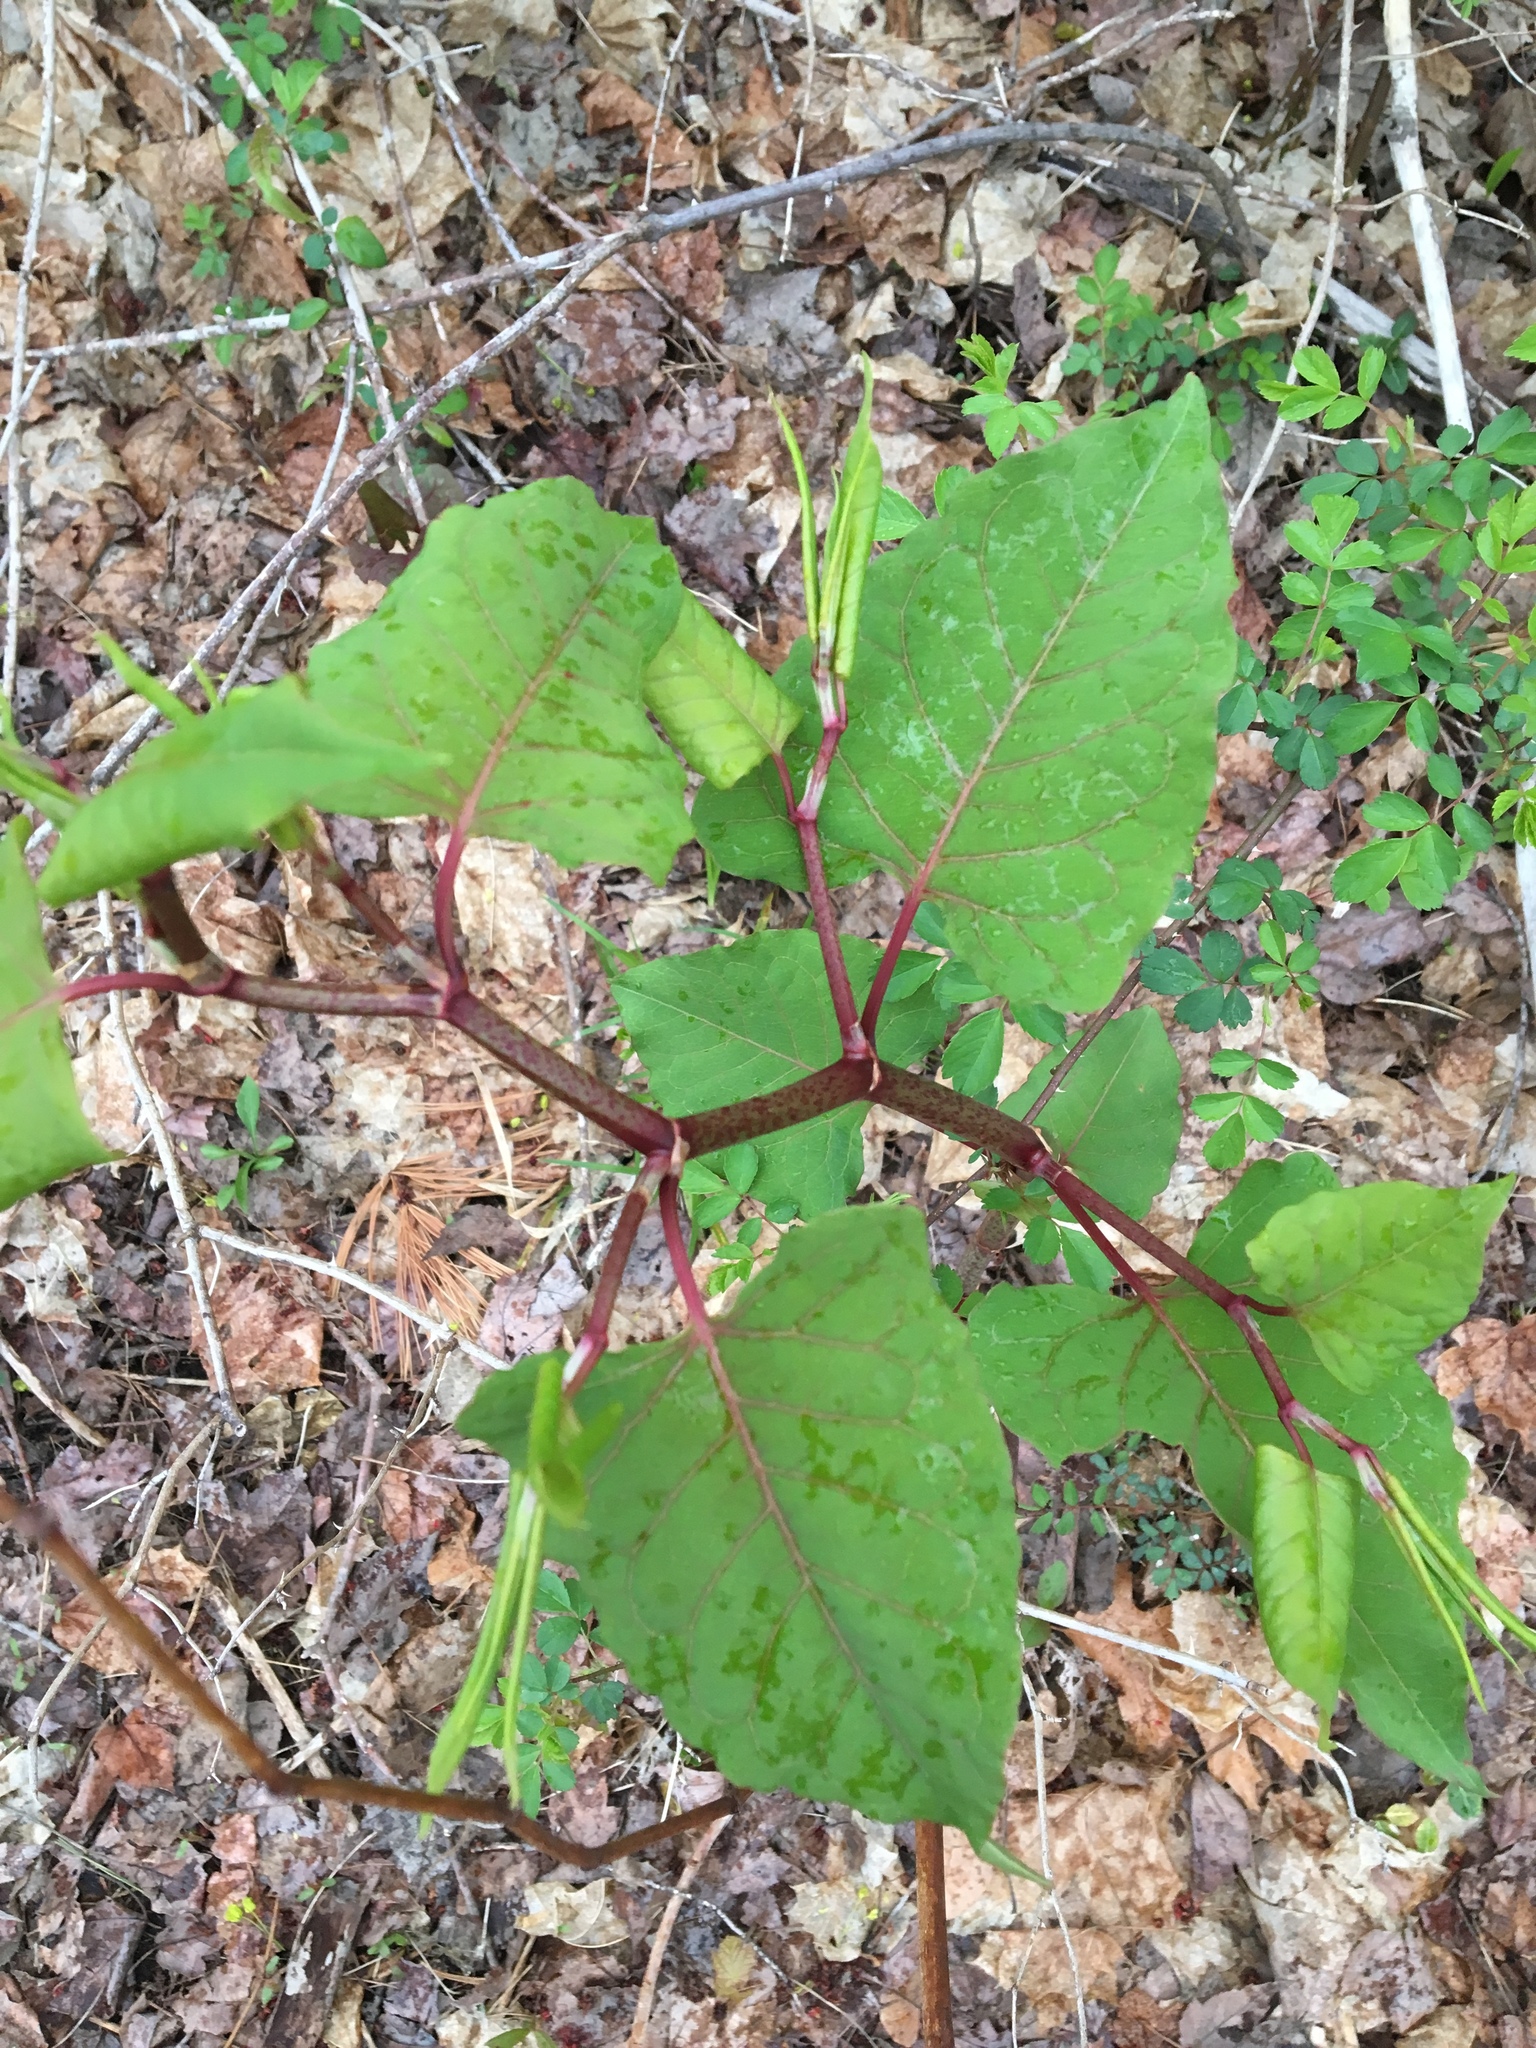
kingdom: Plantae
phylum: Tracheophyta
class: Magnoliopsida
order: Caryophyllales
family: Polygonaceae
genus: Reynoutria
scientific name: Reynoutria japonica
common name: Japanese knotweed
